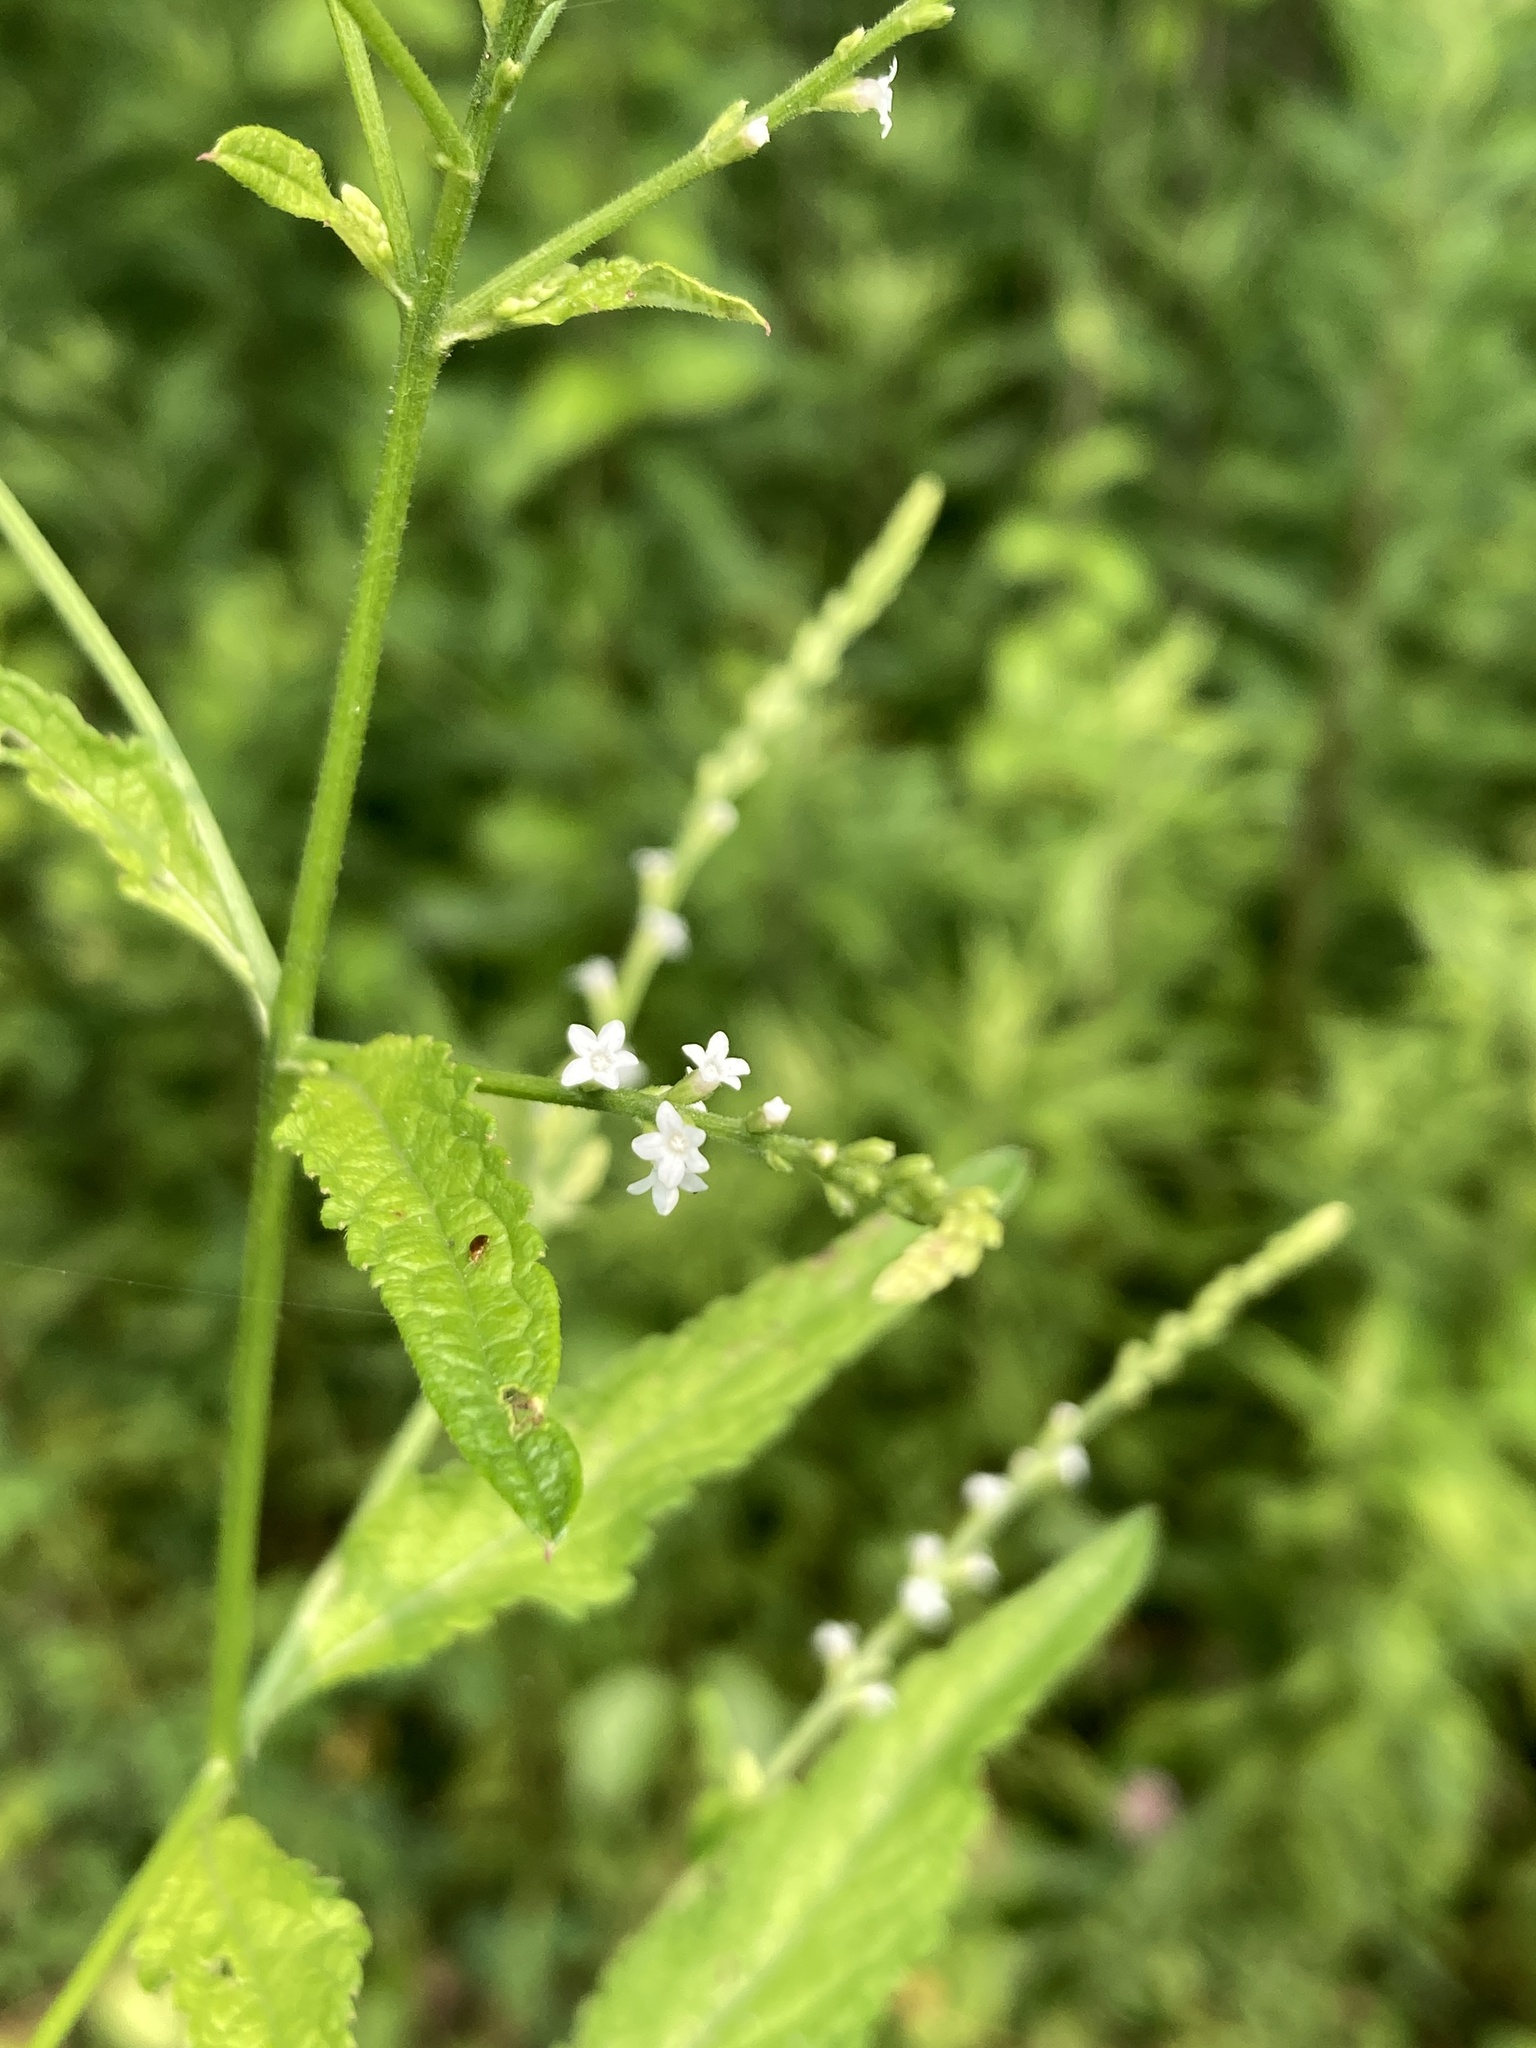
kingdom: Plantae
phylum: Tracheophyta
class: Magnoliopsida
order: Lamiales
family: Verbenaceae
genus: Verbena
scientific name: Verbena urticifolia
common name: Nettle-leaved vervain
